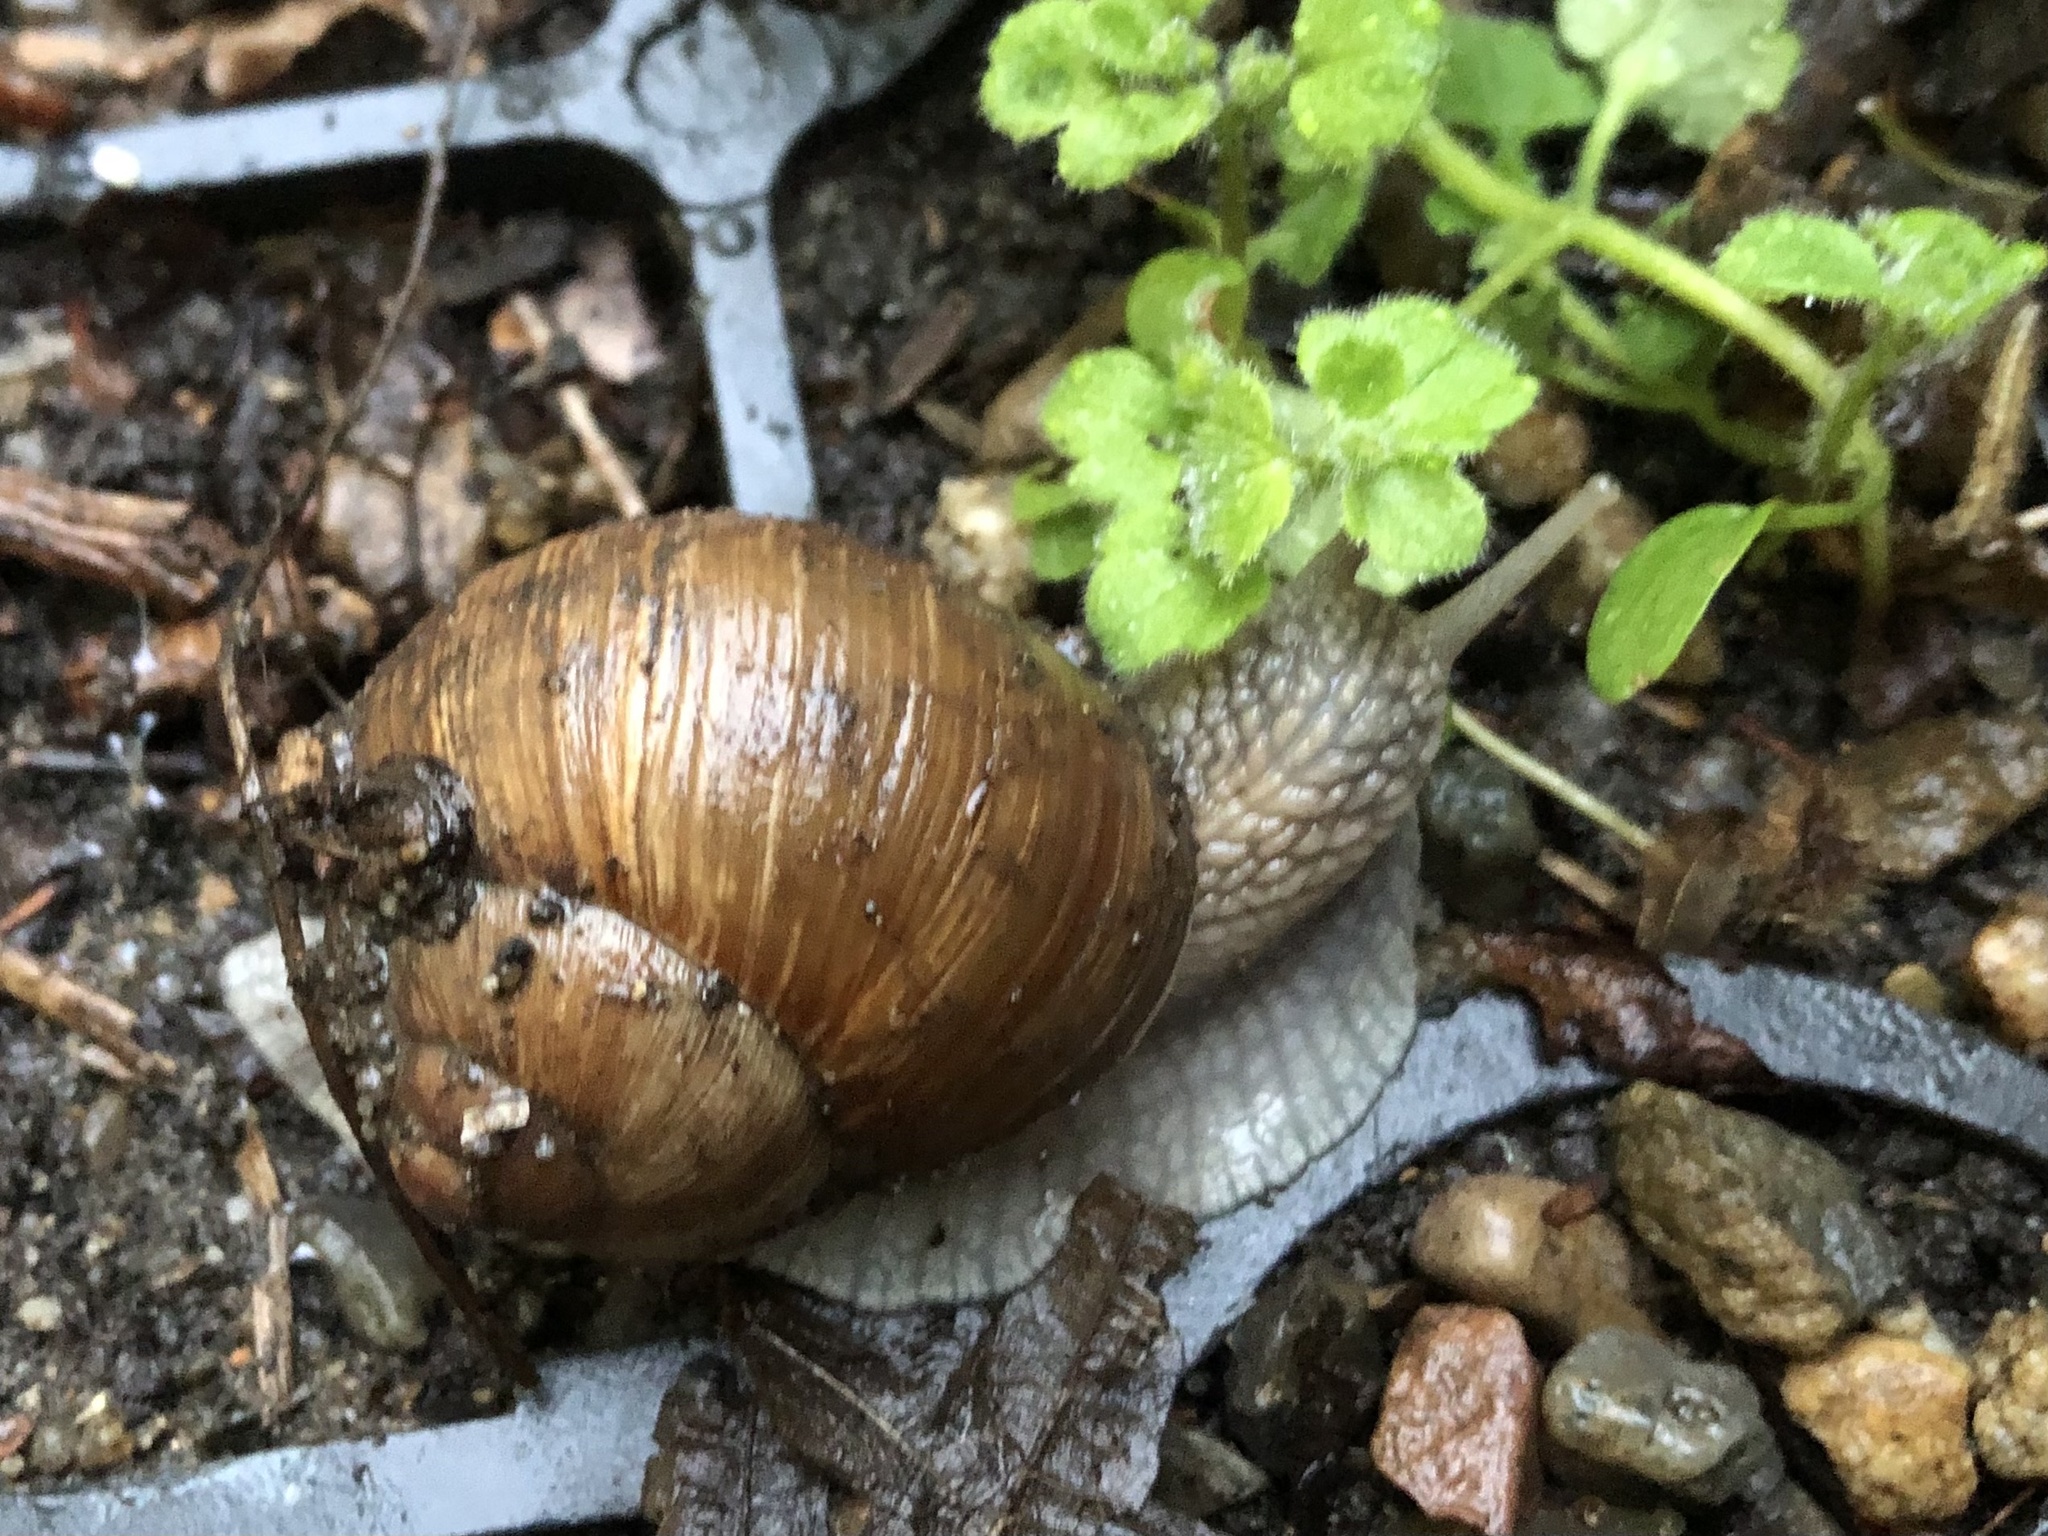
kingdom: Animalia
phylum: Mollusca
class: Gastropoda
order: Stylommatophora
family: Helicidae
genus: Helix
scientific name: Helix pomatia
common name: Roman snail
